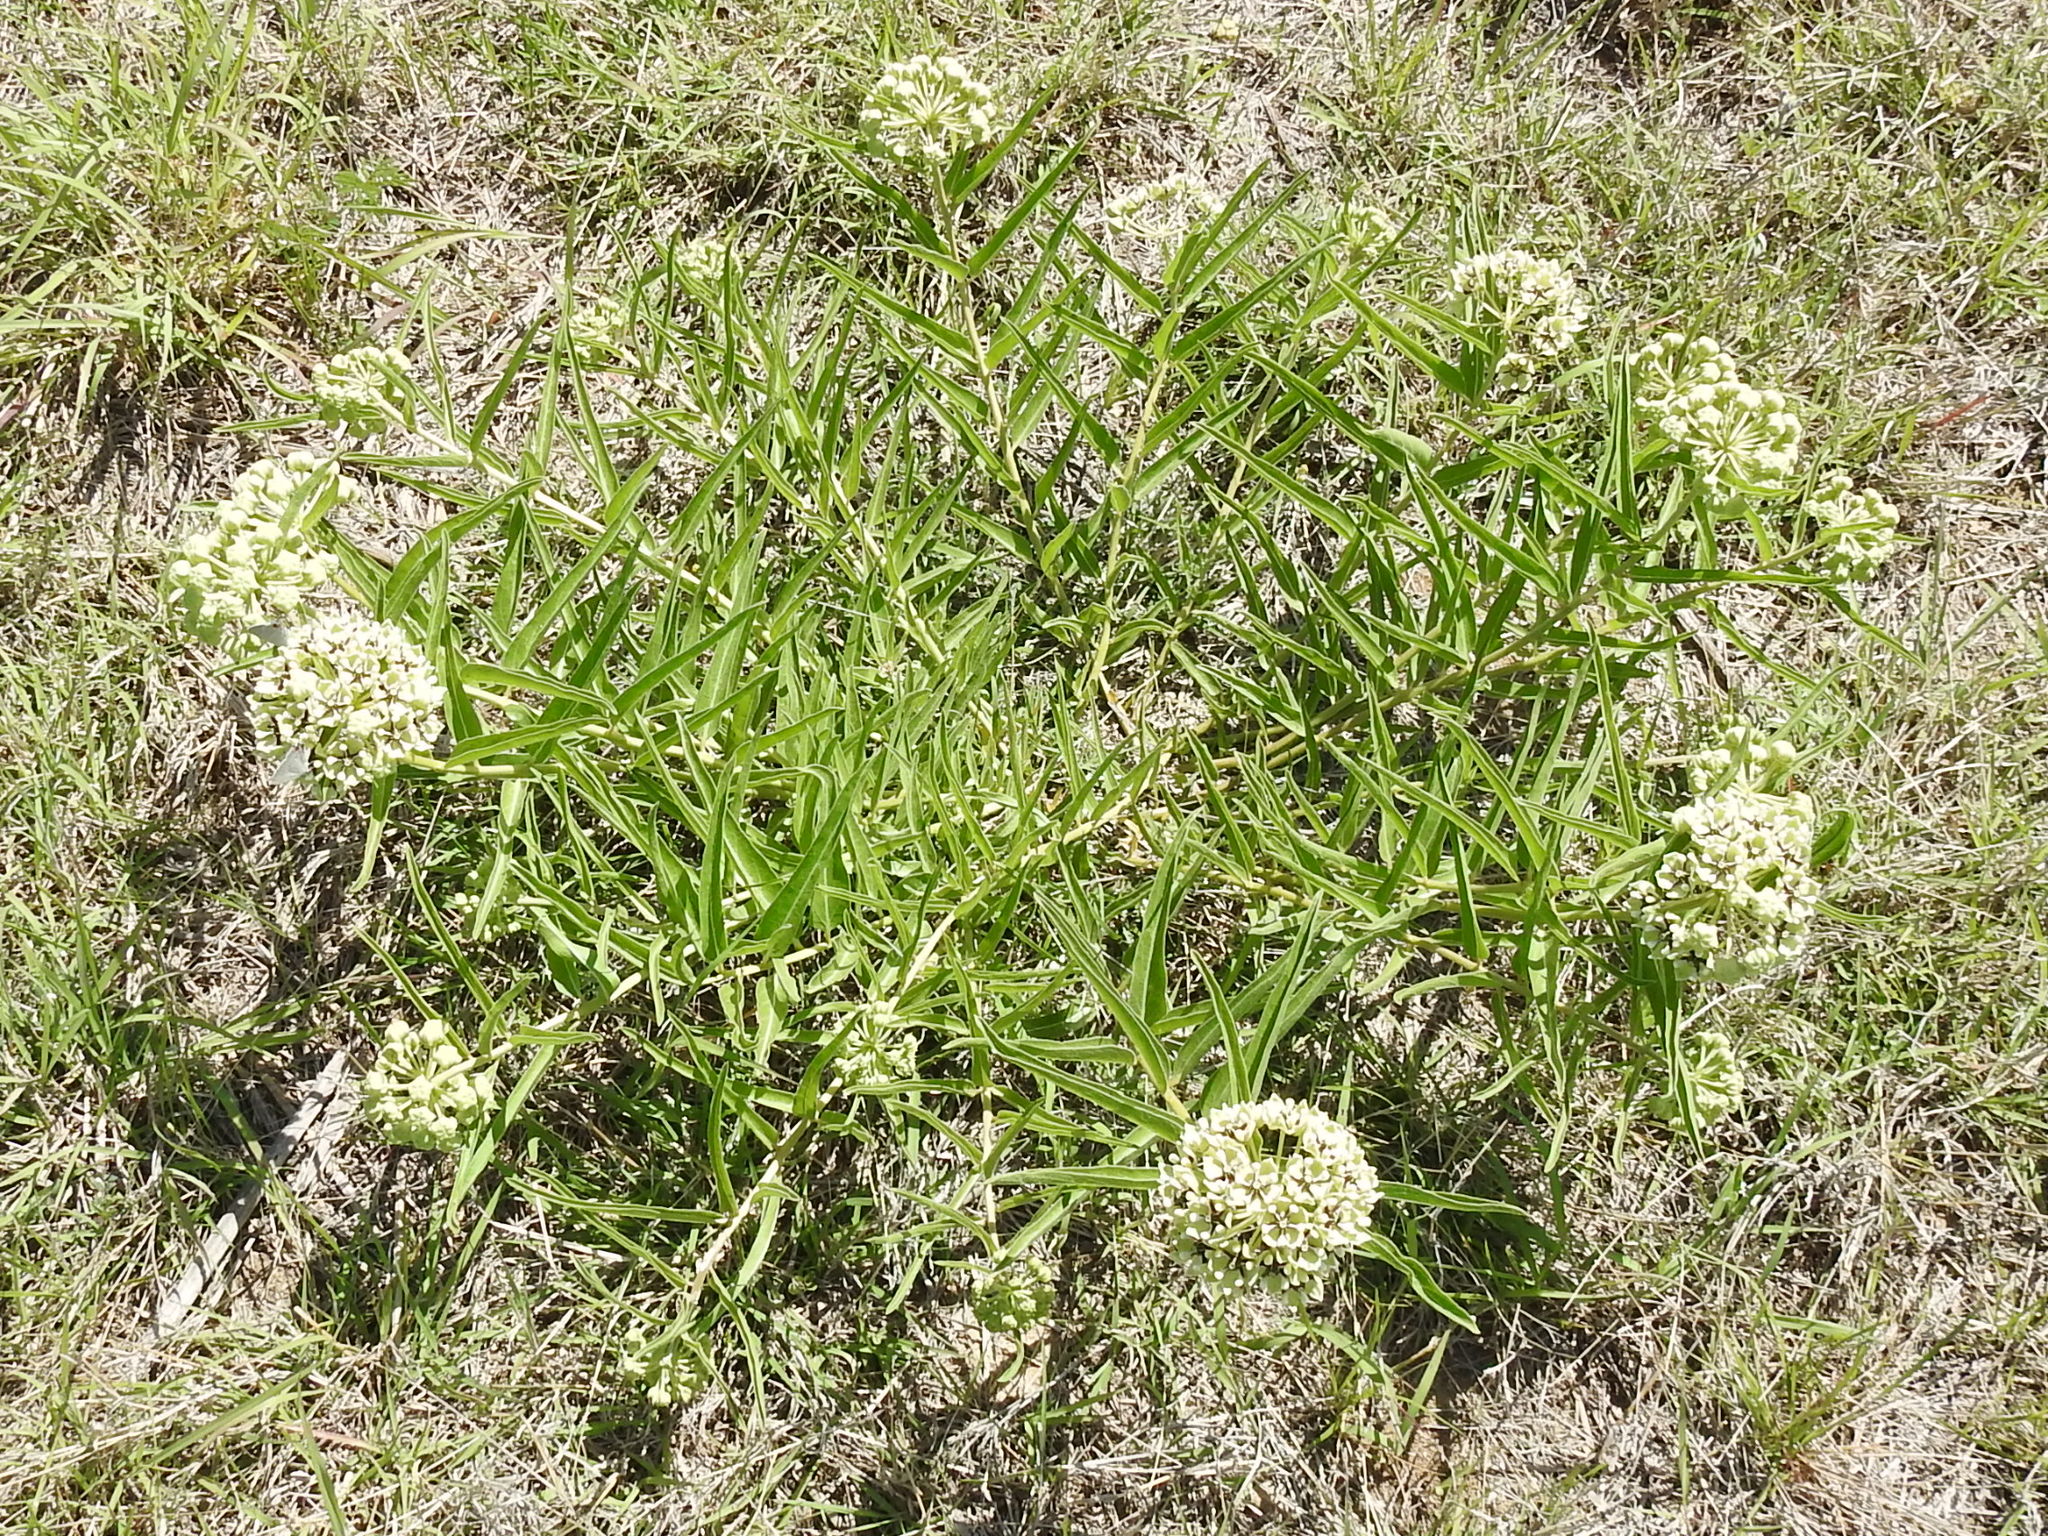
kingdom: Plantae
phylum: Tracheophyta
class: Magnoliopsida
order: Gentianales
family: Apocynaceae
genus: Asclepias
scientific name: Asclepias asperula
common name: Antelope horns
